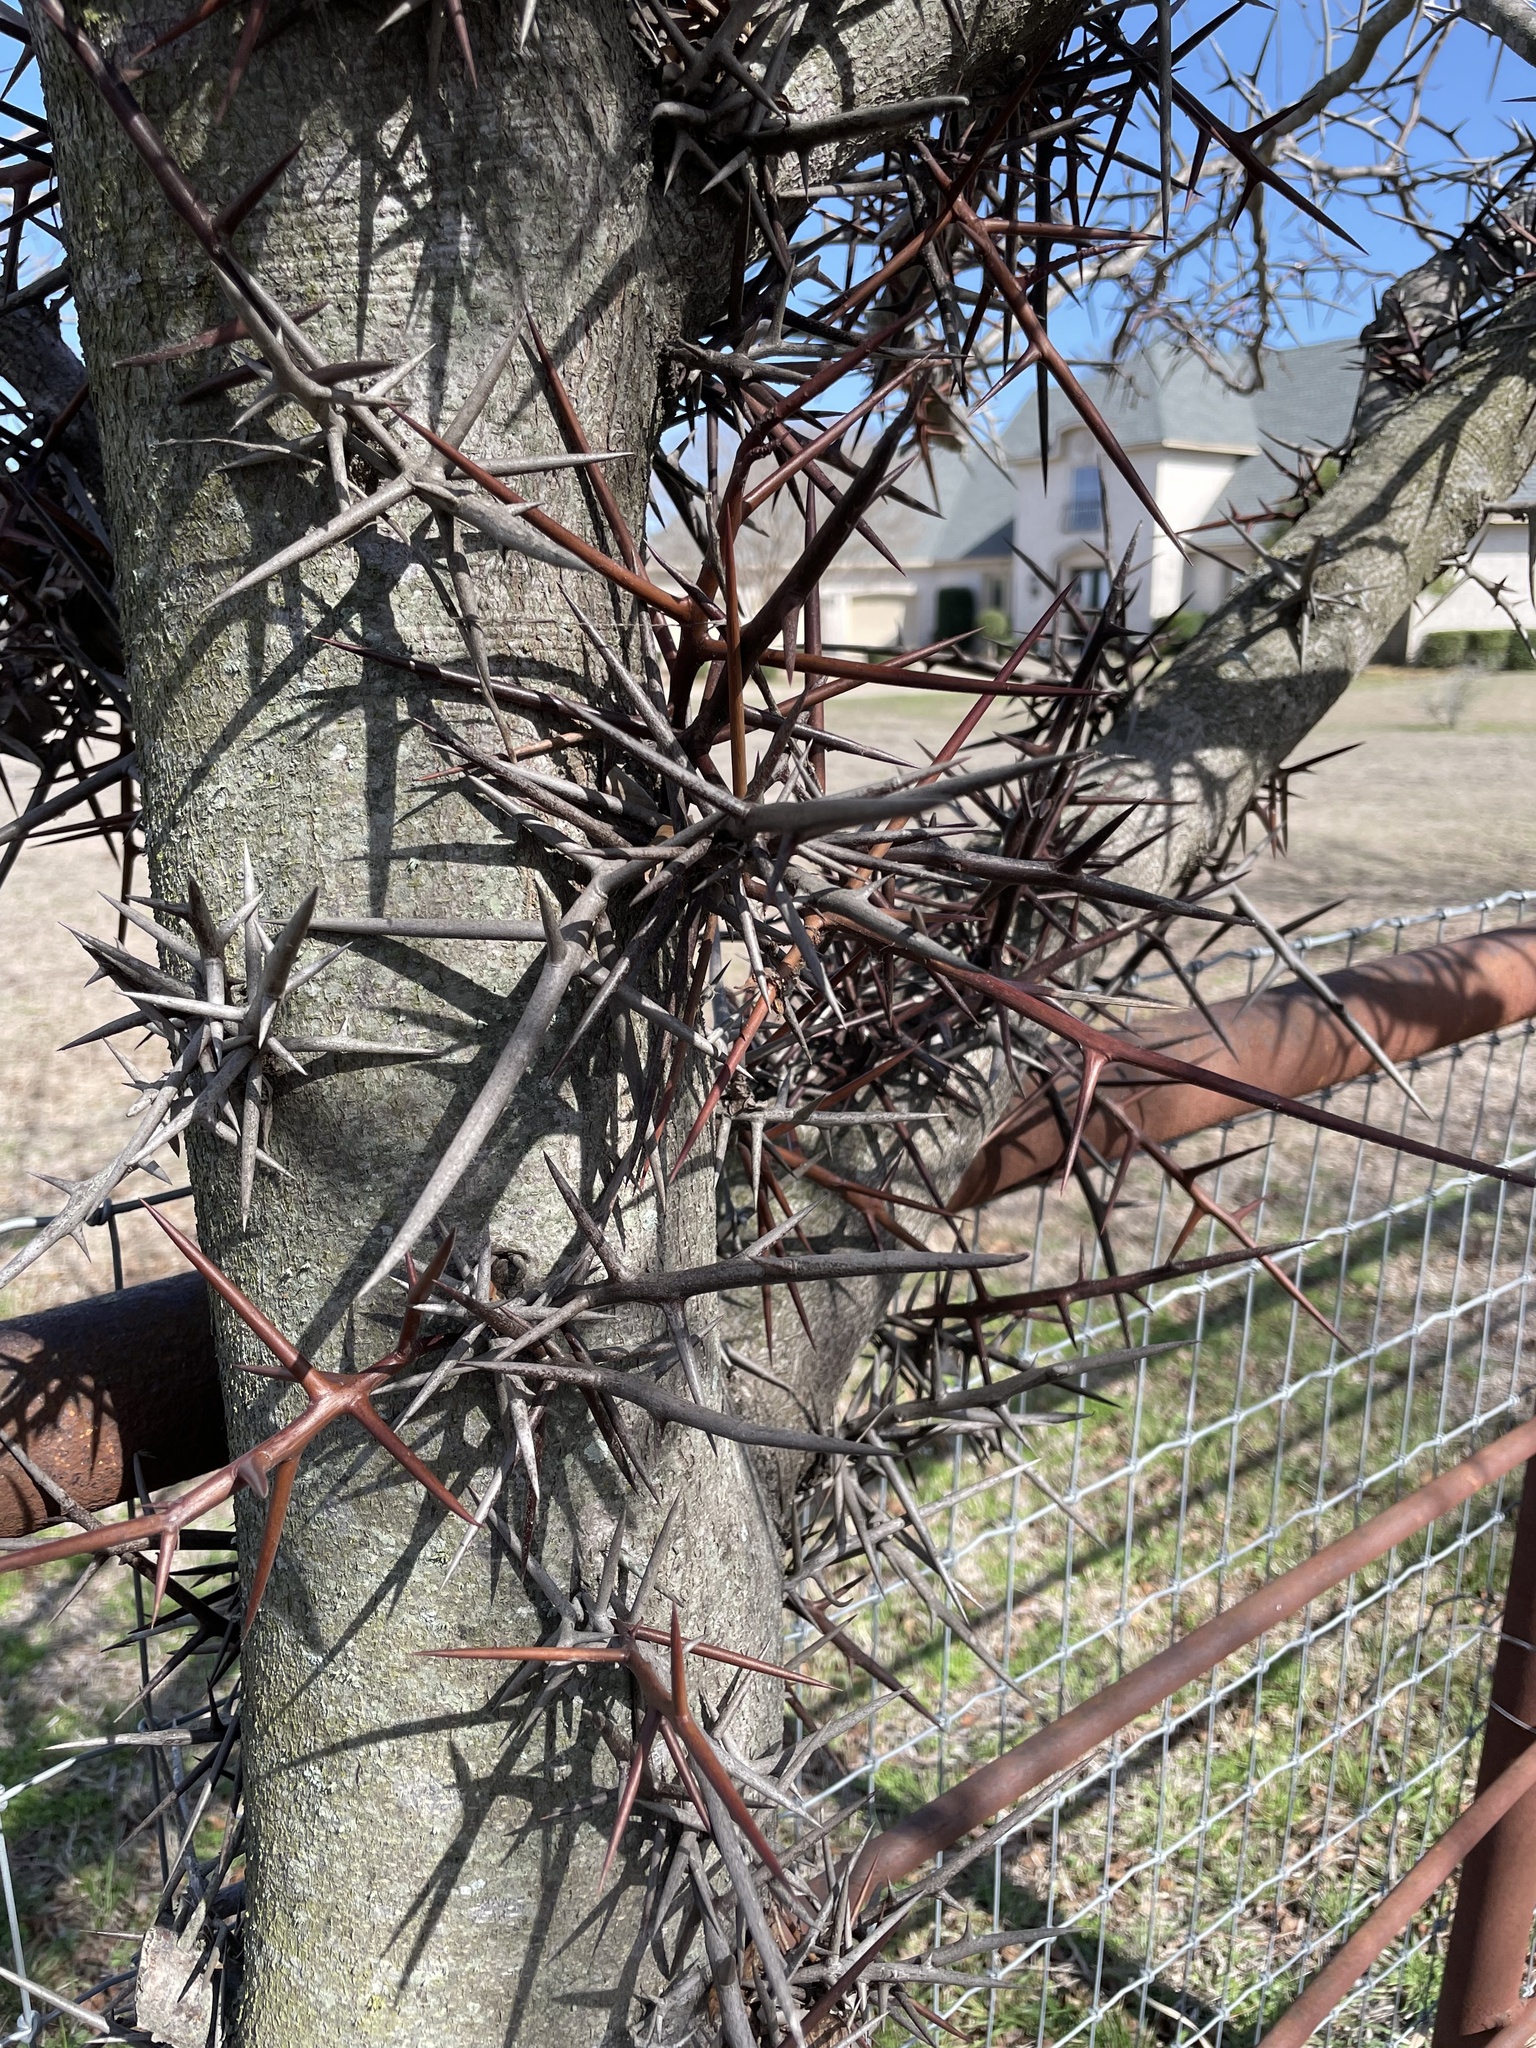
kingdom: Plantae
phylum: Tracheophyta
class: Magnoliopsida
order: Fabales
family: Fabaceae
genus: Gleditsia
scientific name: Gleditsia triacanthos
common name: Common honeylocust
